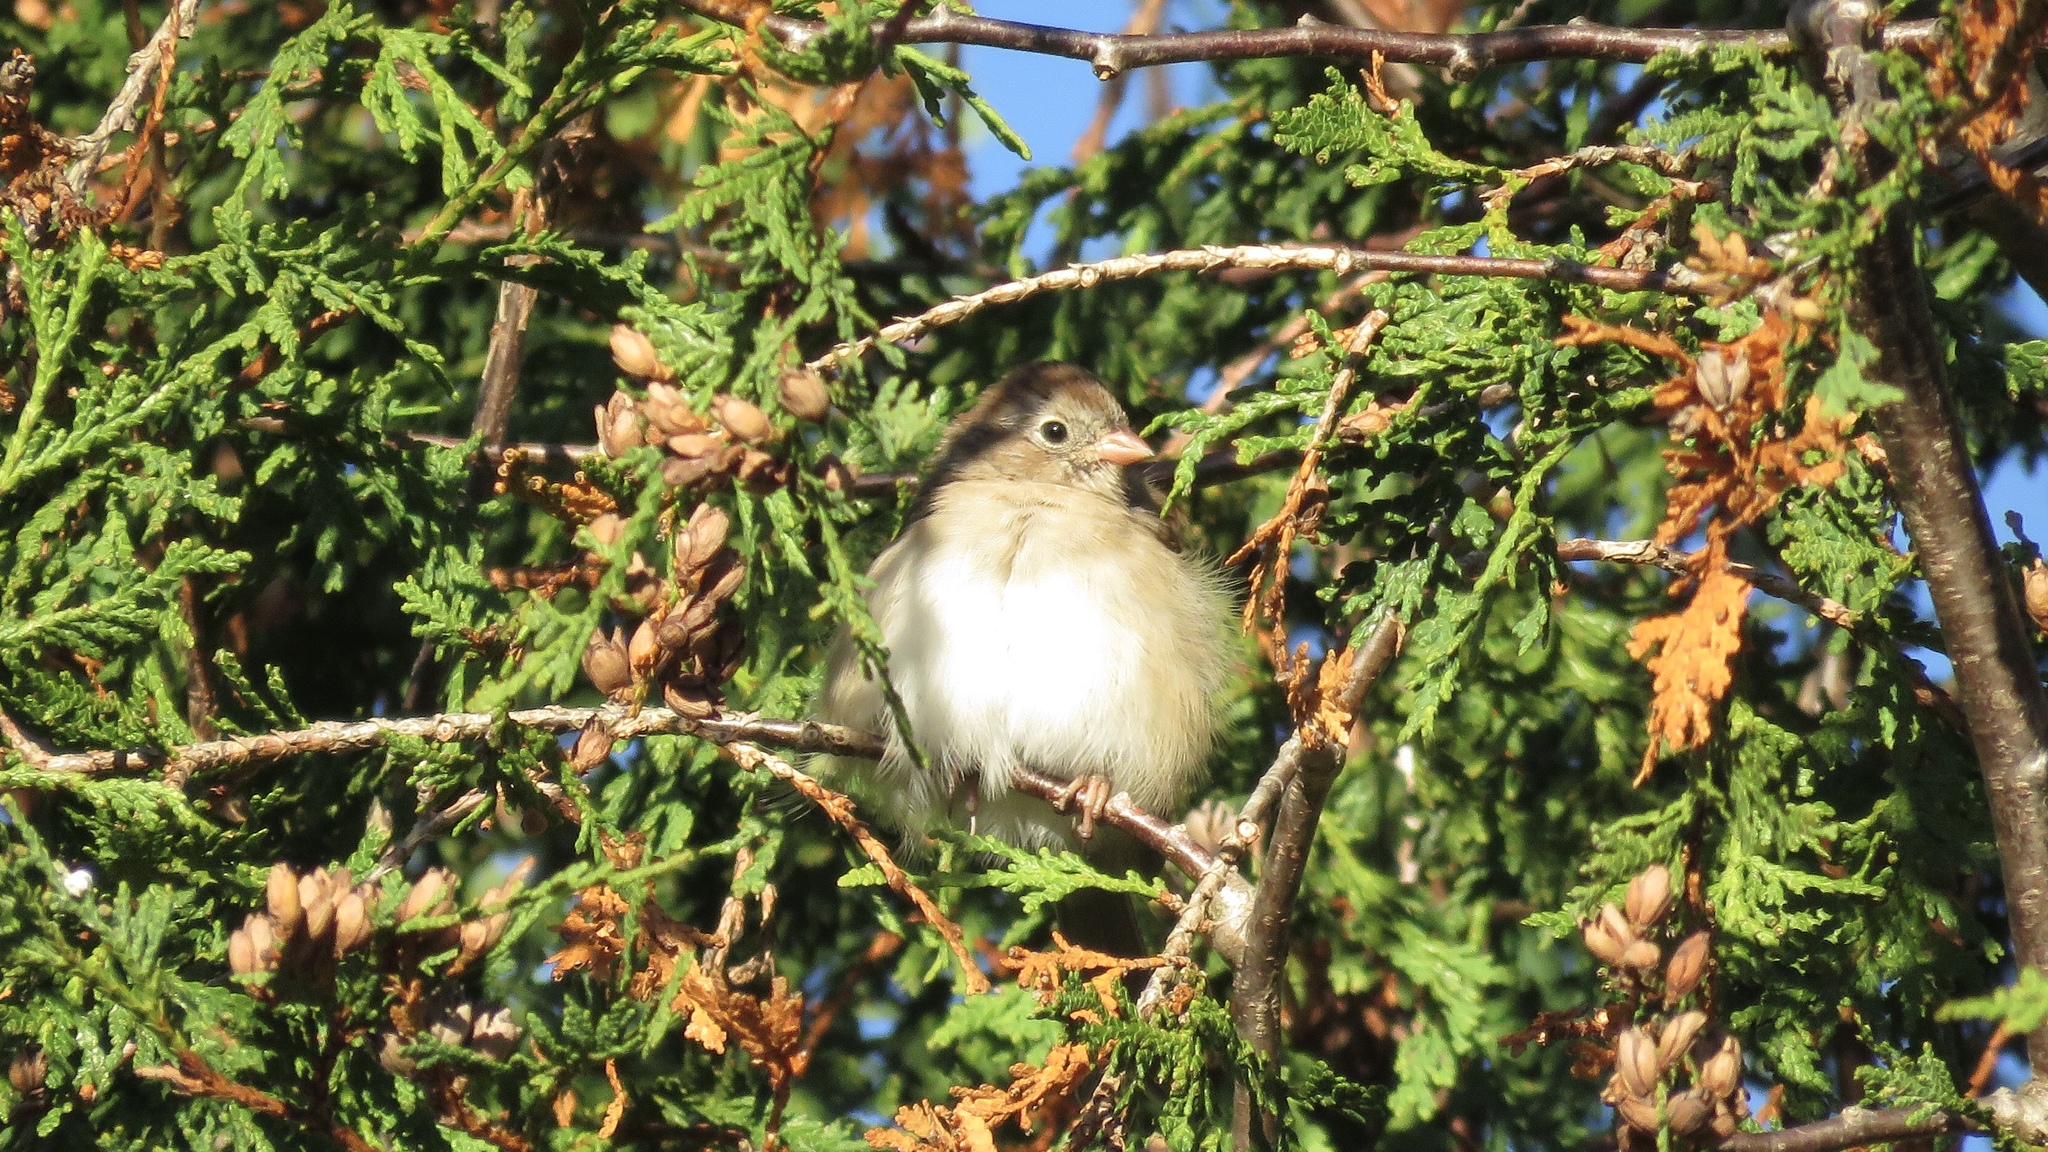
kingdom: Animalia
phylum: Chordata
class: Aves
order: Passeriformes
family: Passerellidae
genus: Spizella
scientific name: Spizella pusilla
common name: Field sparrow
